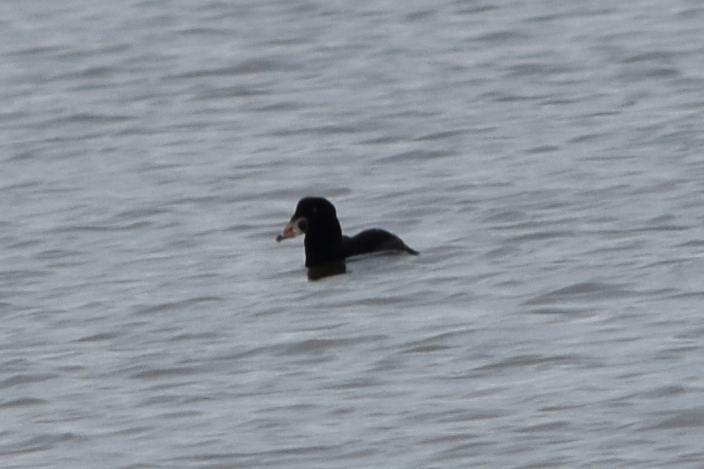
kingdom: Animalia
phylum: Chordata
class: Aves
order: Anseriformes
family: Anatidae
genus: Melanitta
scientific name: Melanitta perspicillata
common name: Surf scoter
